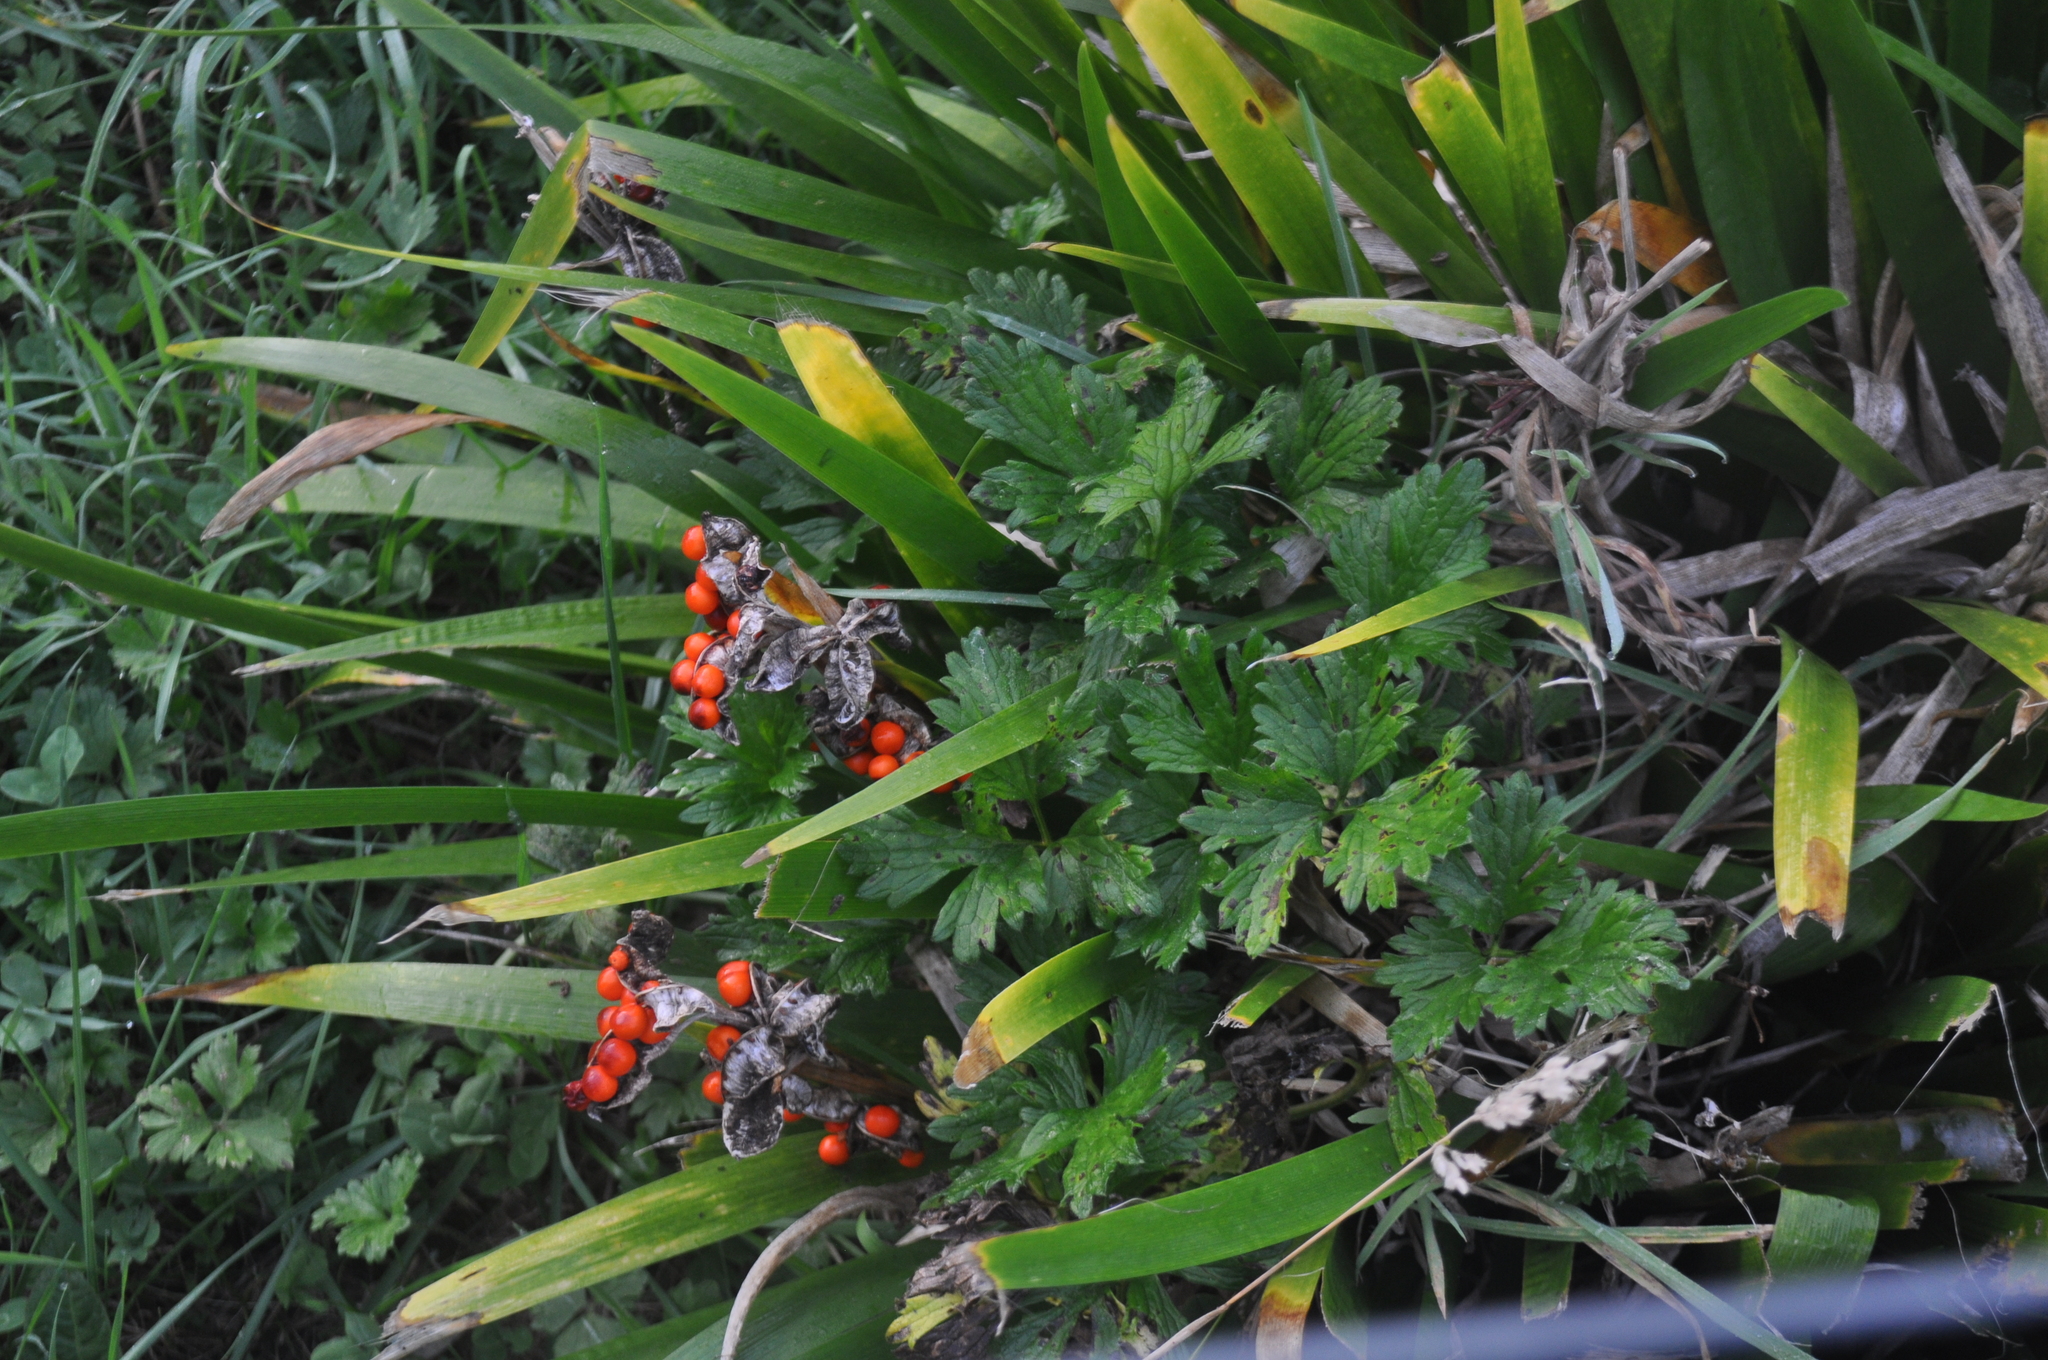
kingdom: Plantae
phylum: Tracheophyta
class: Liliopsida
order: Asparagales
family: Iridaceae
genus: Iris
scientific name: Iris foetidissima
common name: Stinking iris
